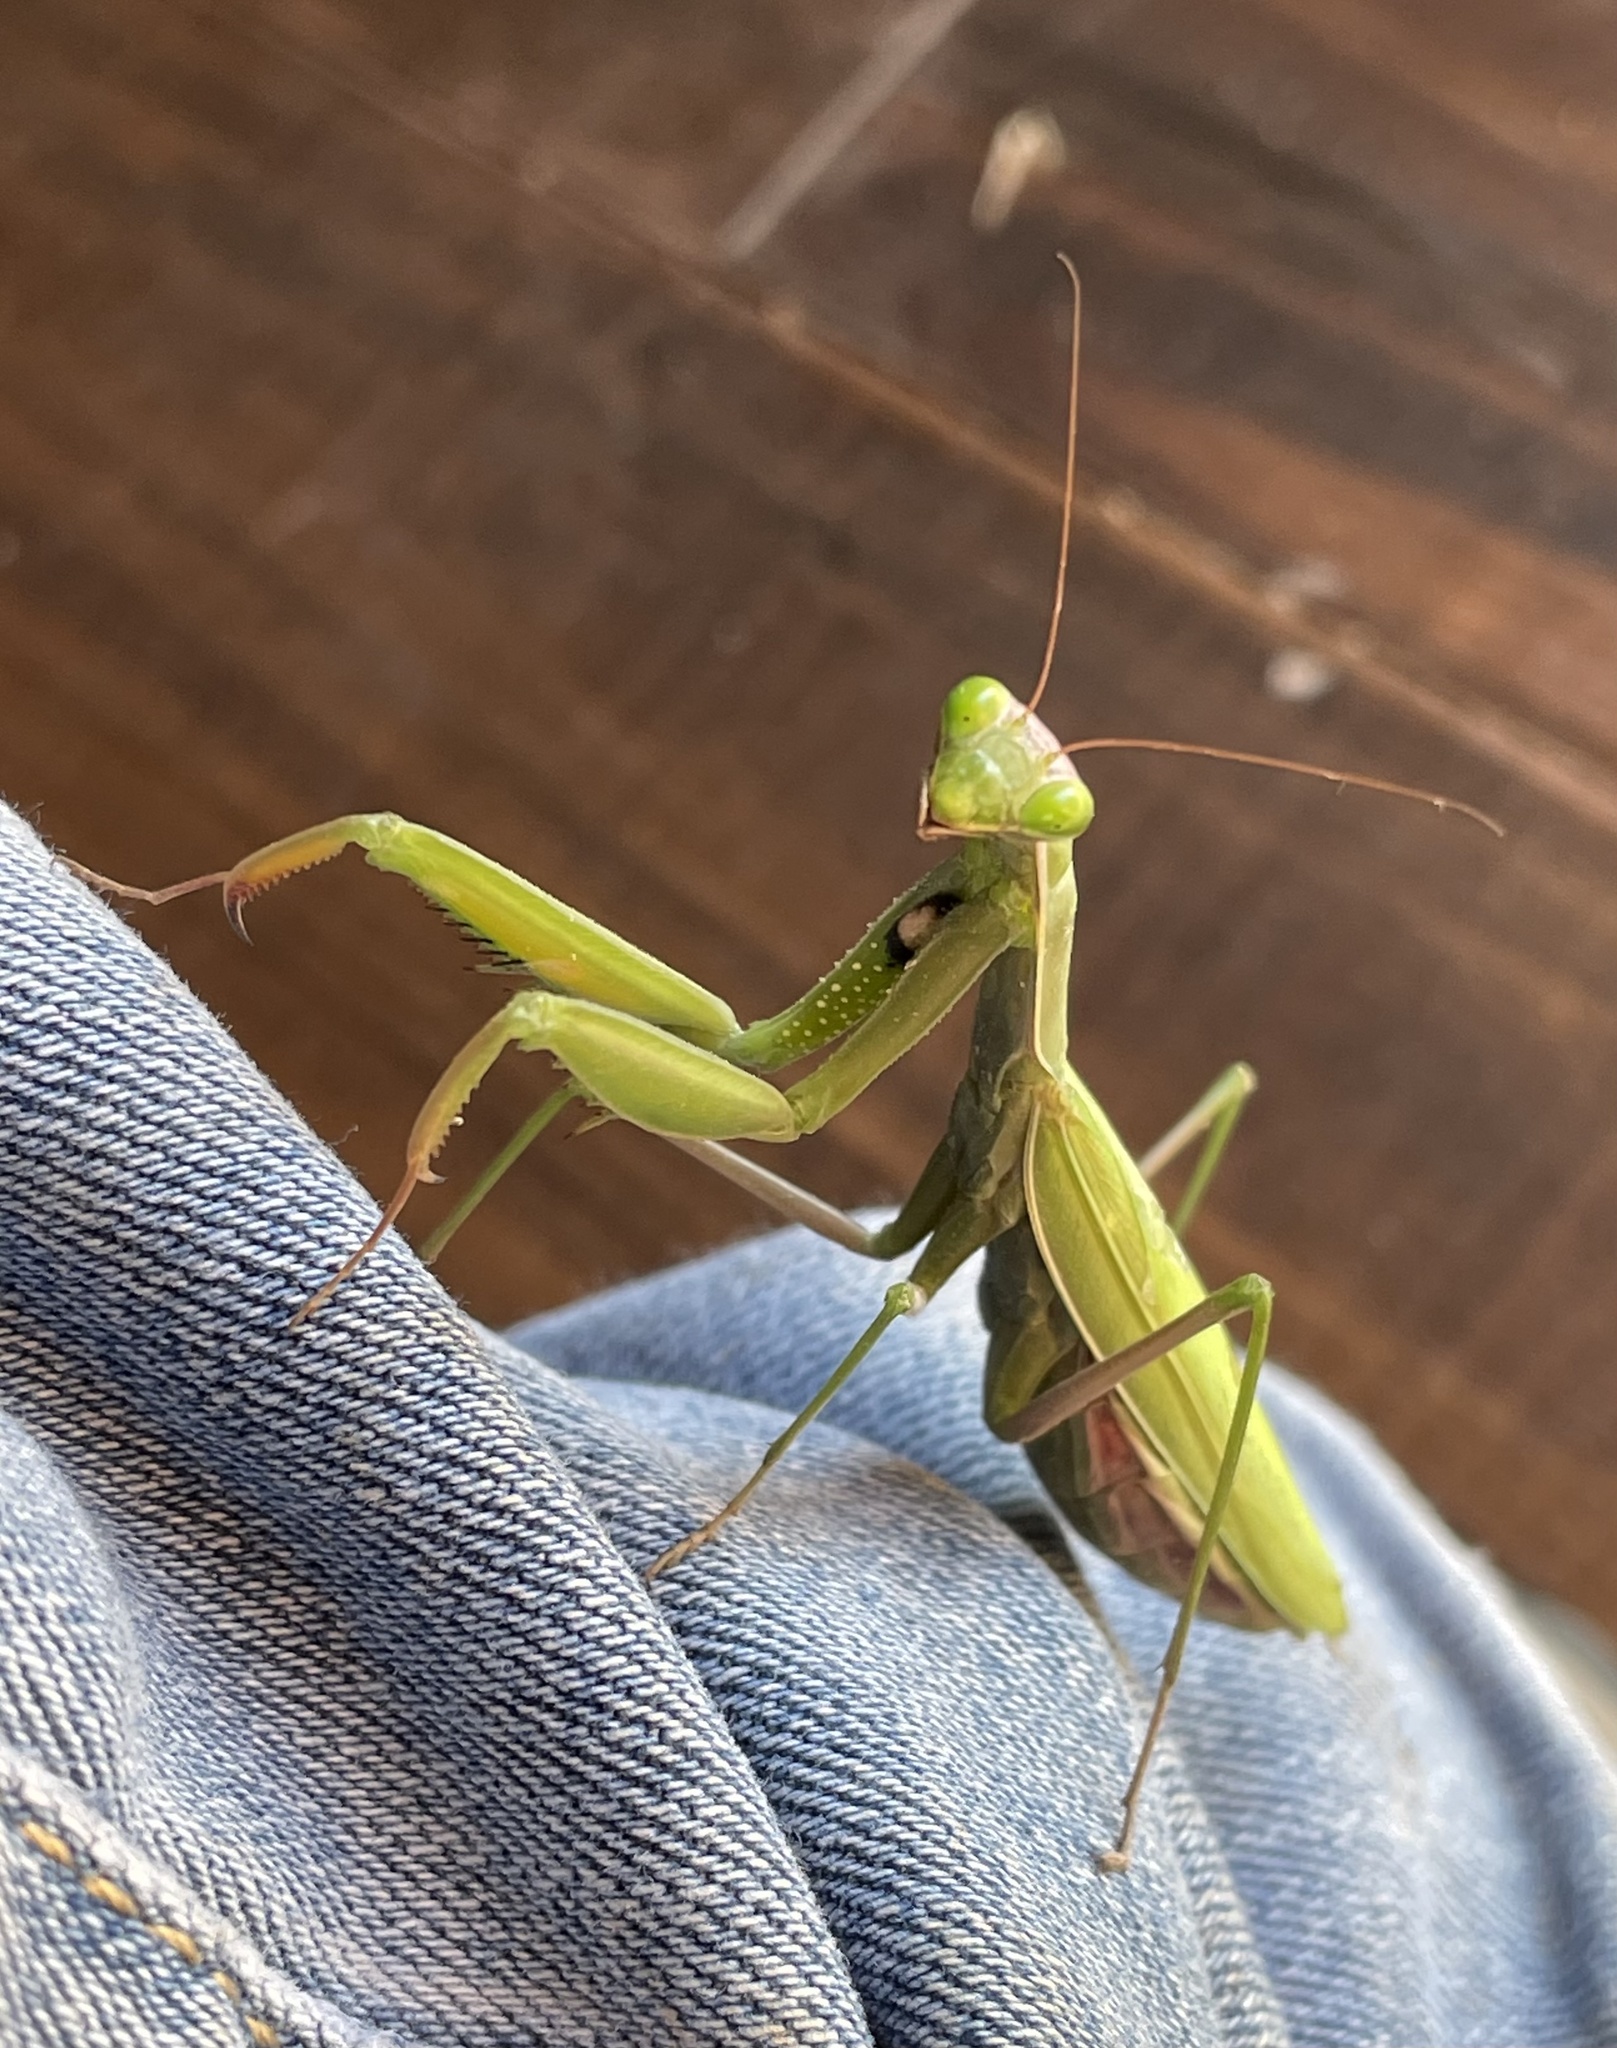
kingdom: Animalia
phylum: Arthropoda
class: Insecta
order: Mantodea
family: Mantidae
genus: Mantis
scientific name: Mantis religiosa
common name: Praying mantis
